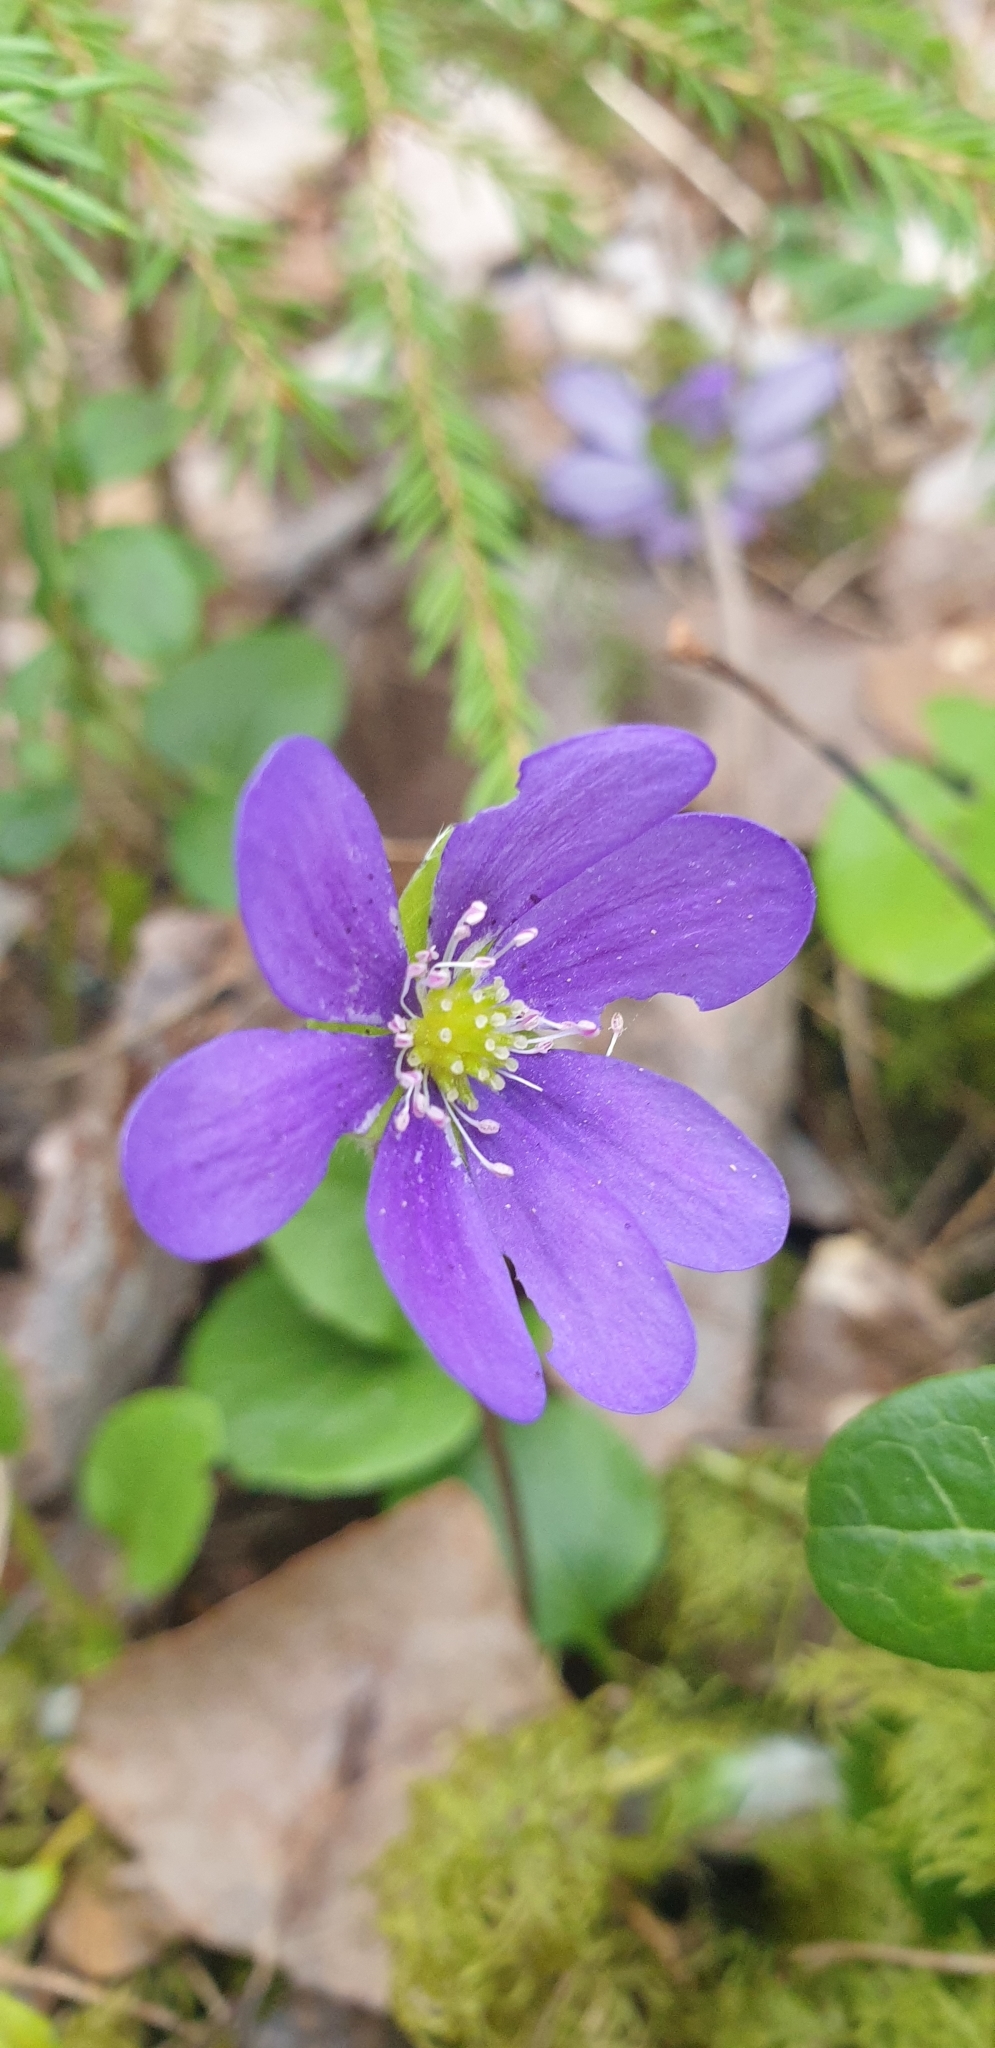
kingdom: Plantae
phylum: Tracheophyta
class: Magnoliopsida
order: Ranunculales
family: Ranunculaceae
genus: Hepatica
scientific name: Hepatica nobilis
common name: Liverleaf
